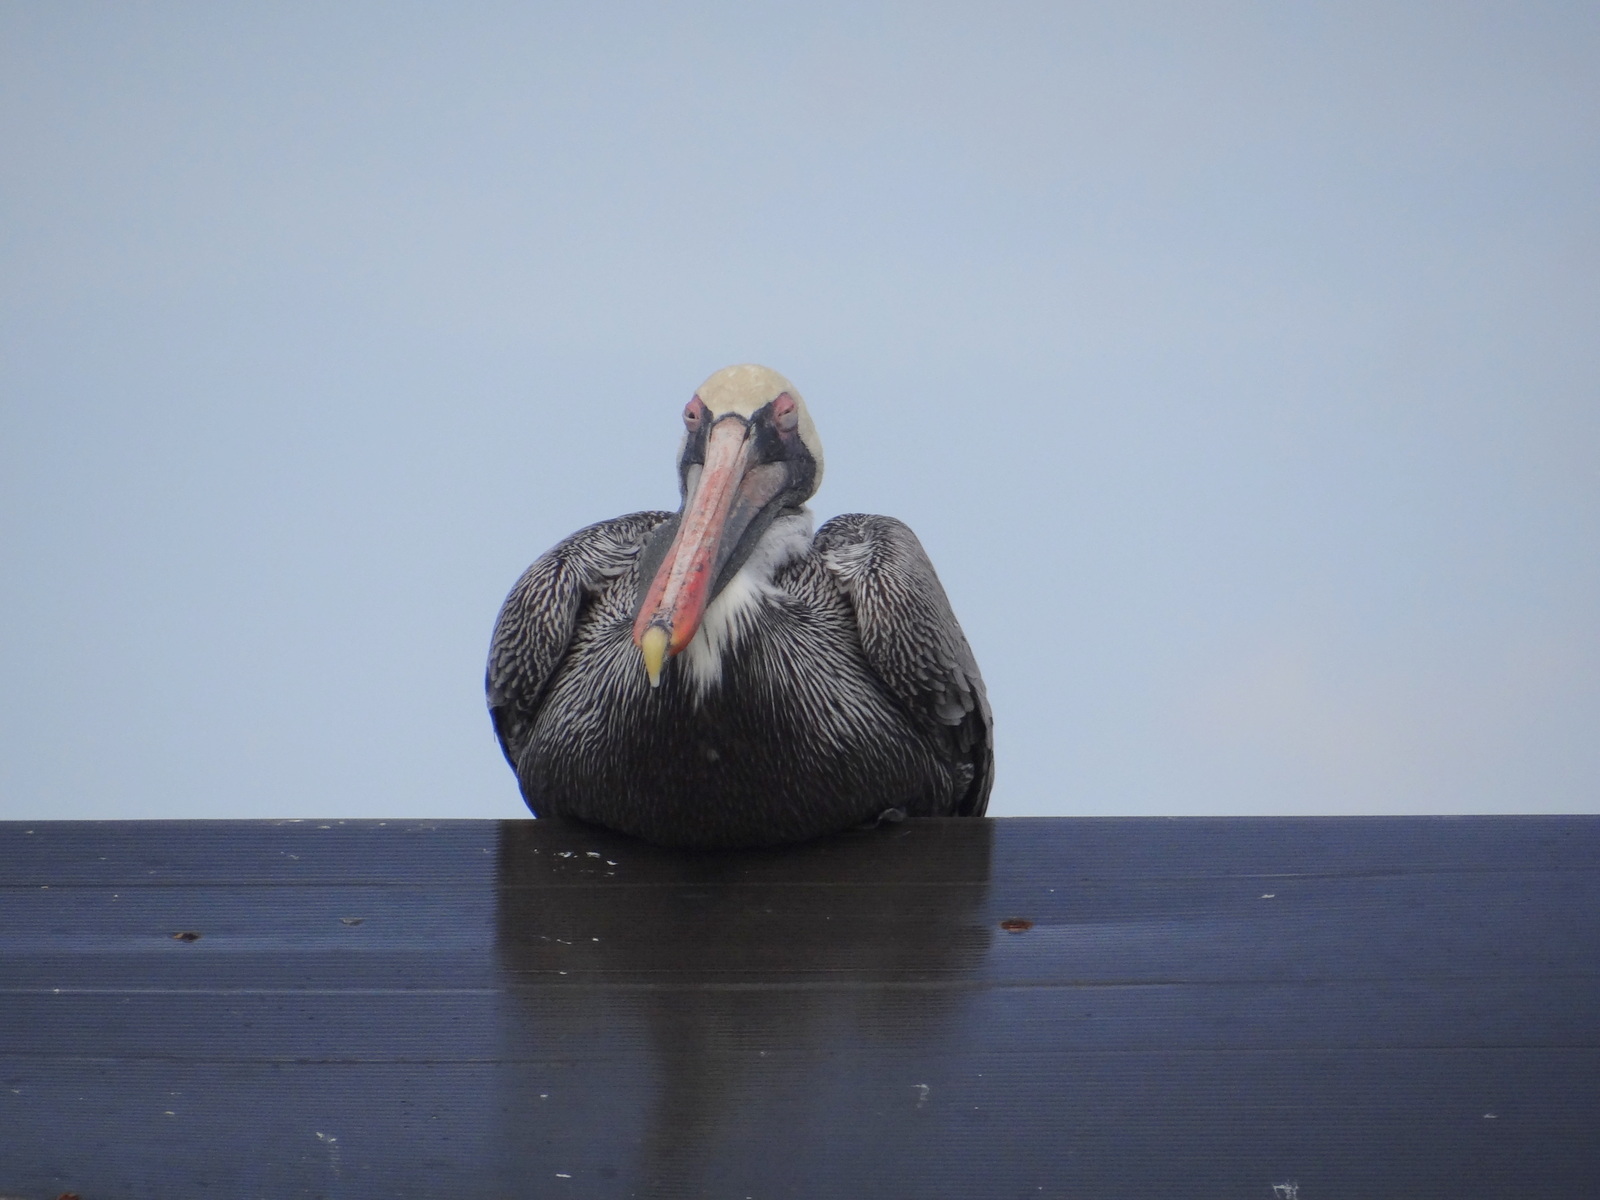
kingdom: Animalia
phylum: Chordata
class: Aves
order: Pelecaniformes
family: Pelecanidae
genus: Pelecanus
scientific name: Pelecanus occidentalis
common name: Brown pelican
